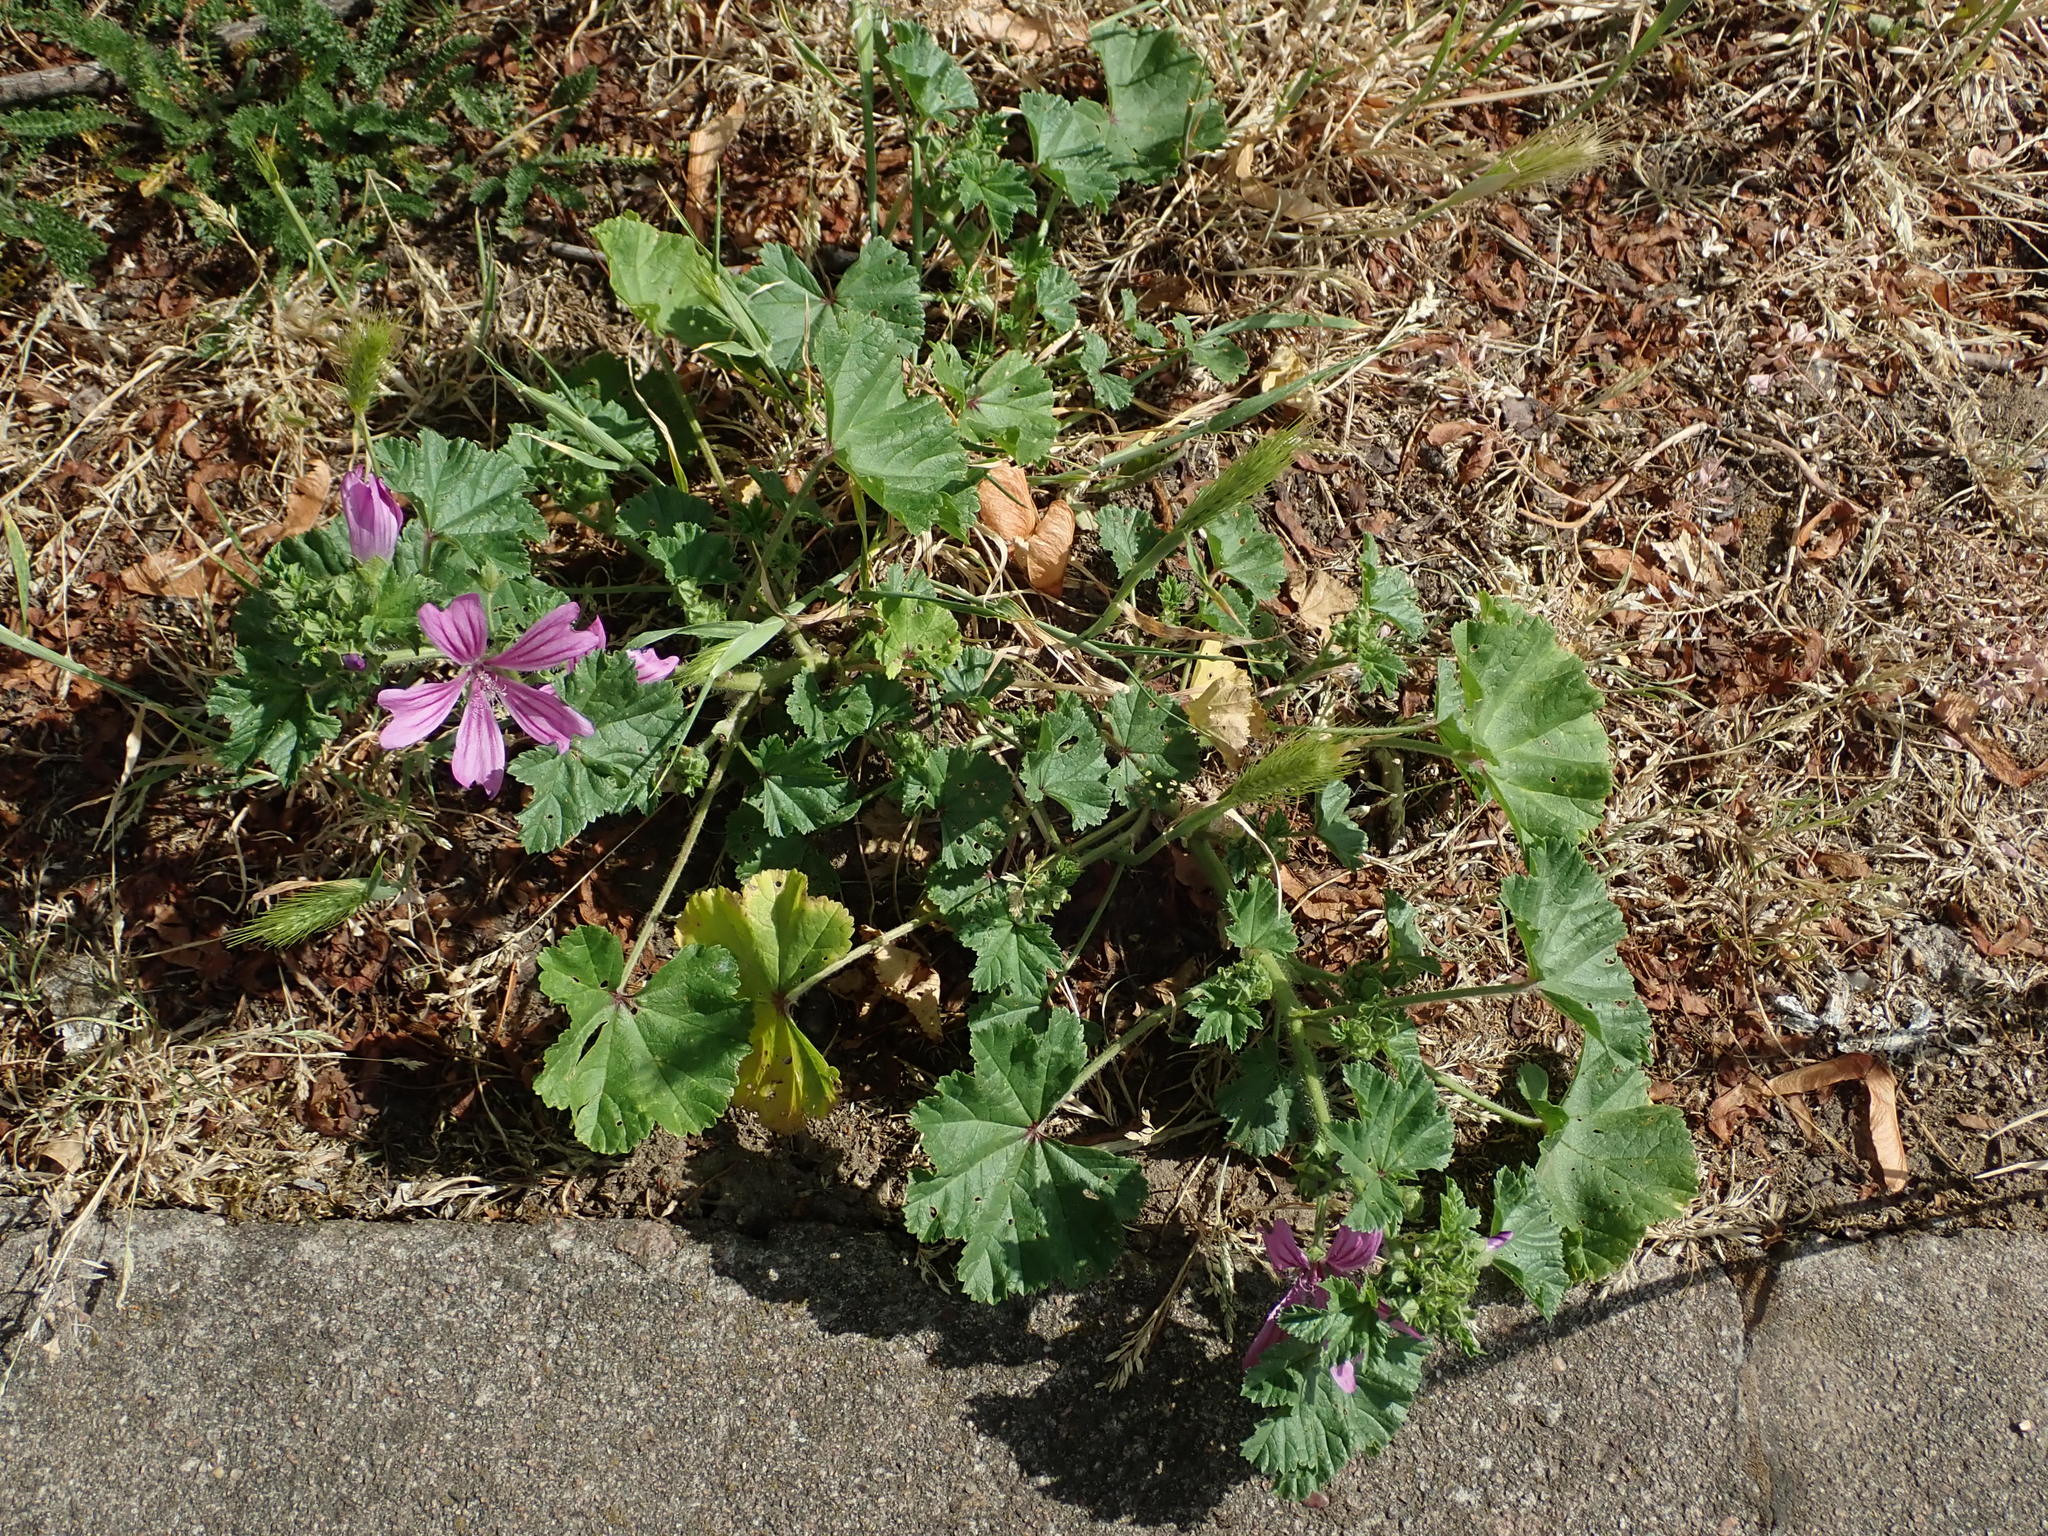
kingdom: Plantae
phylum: Tracheophyta
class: Magnoliopsida
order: Malvales
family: Malvaceae
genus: Malva
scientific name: Malva sylvestris
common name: Common mallow
